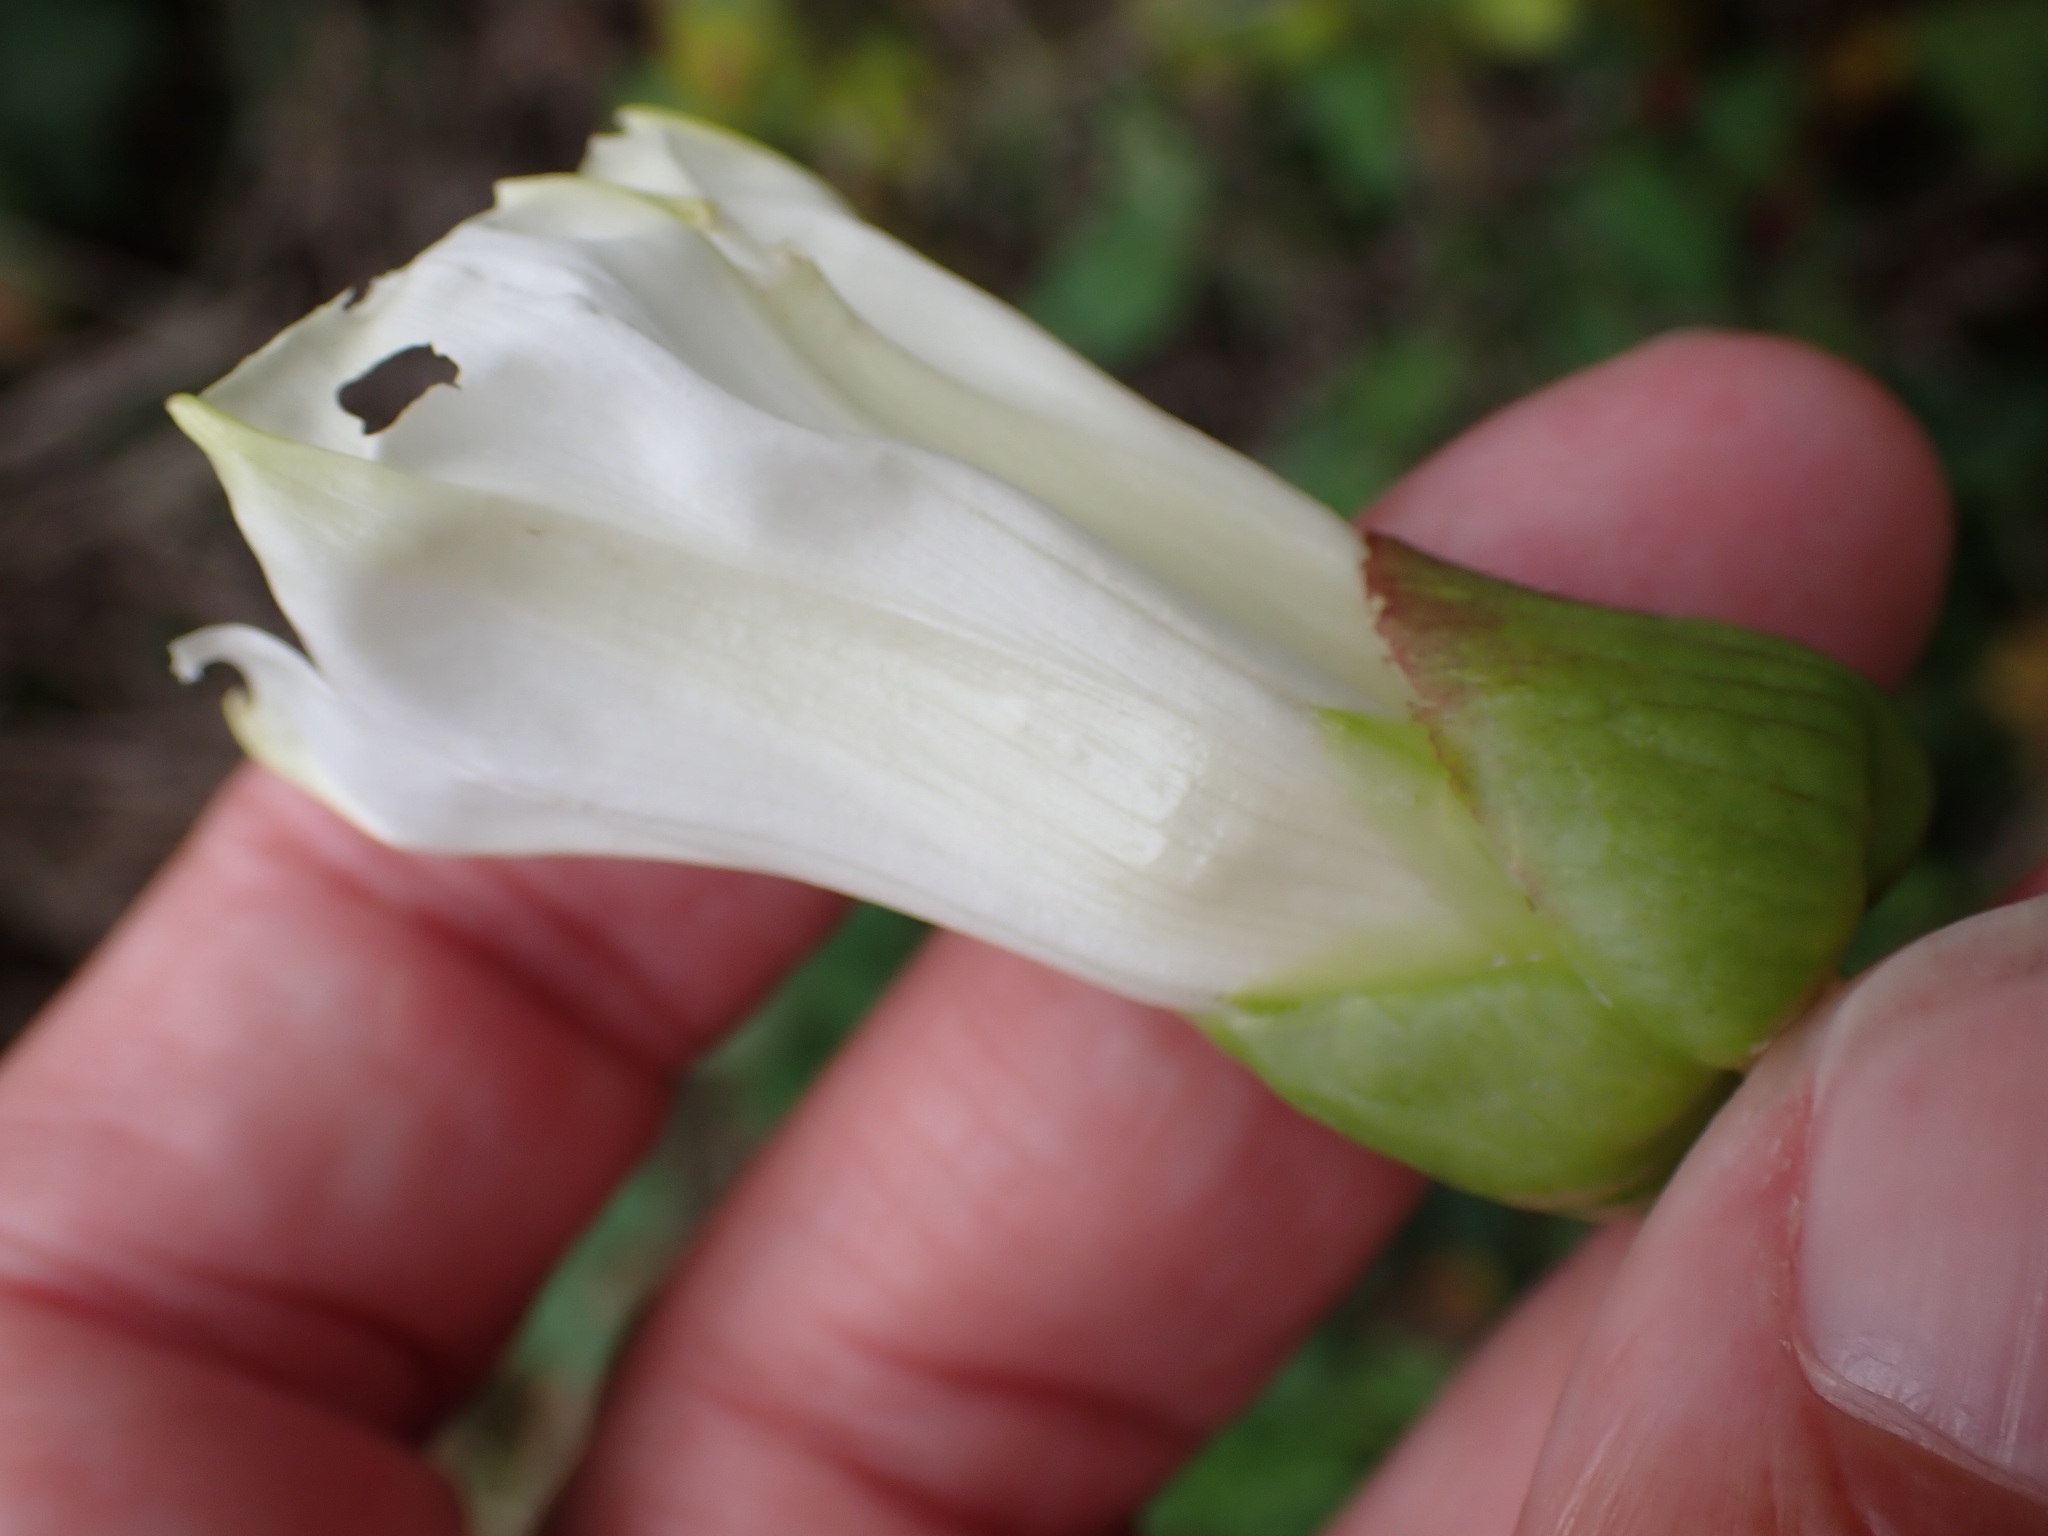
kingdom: Plantae
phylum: Tracheophyta
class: Magnoliopsida
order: Solanales
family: Convolvulaceae
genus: Calystegia
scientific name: Calystegia sepium
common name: Hedge bindweed
